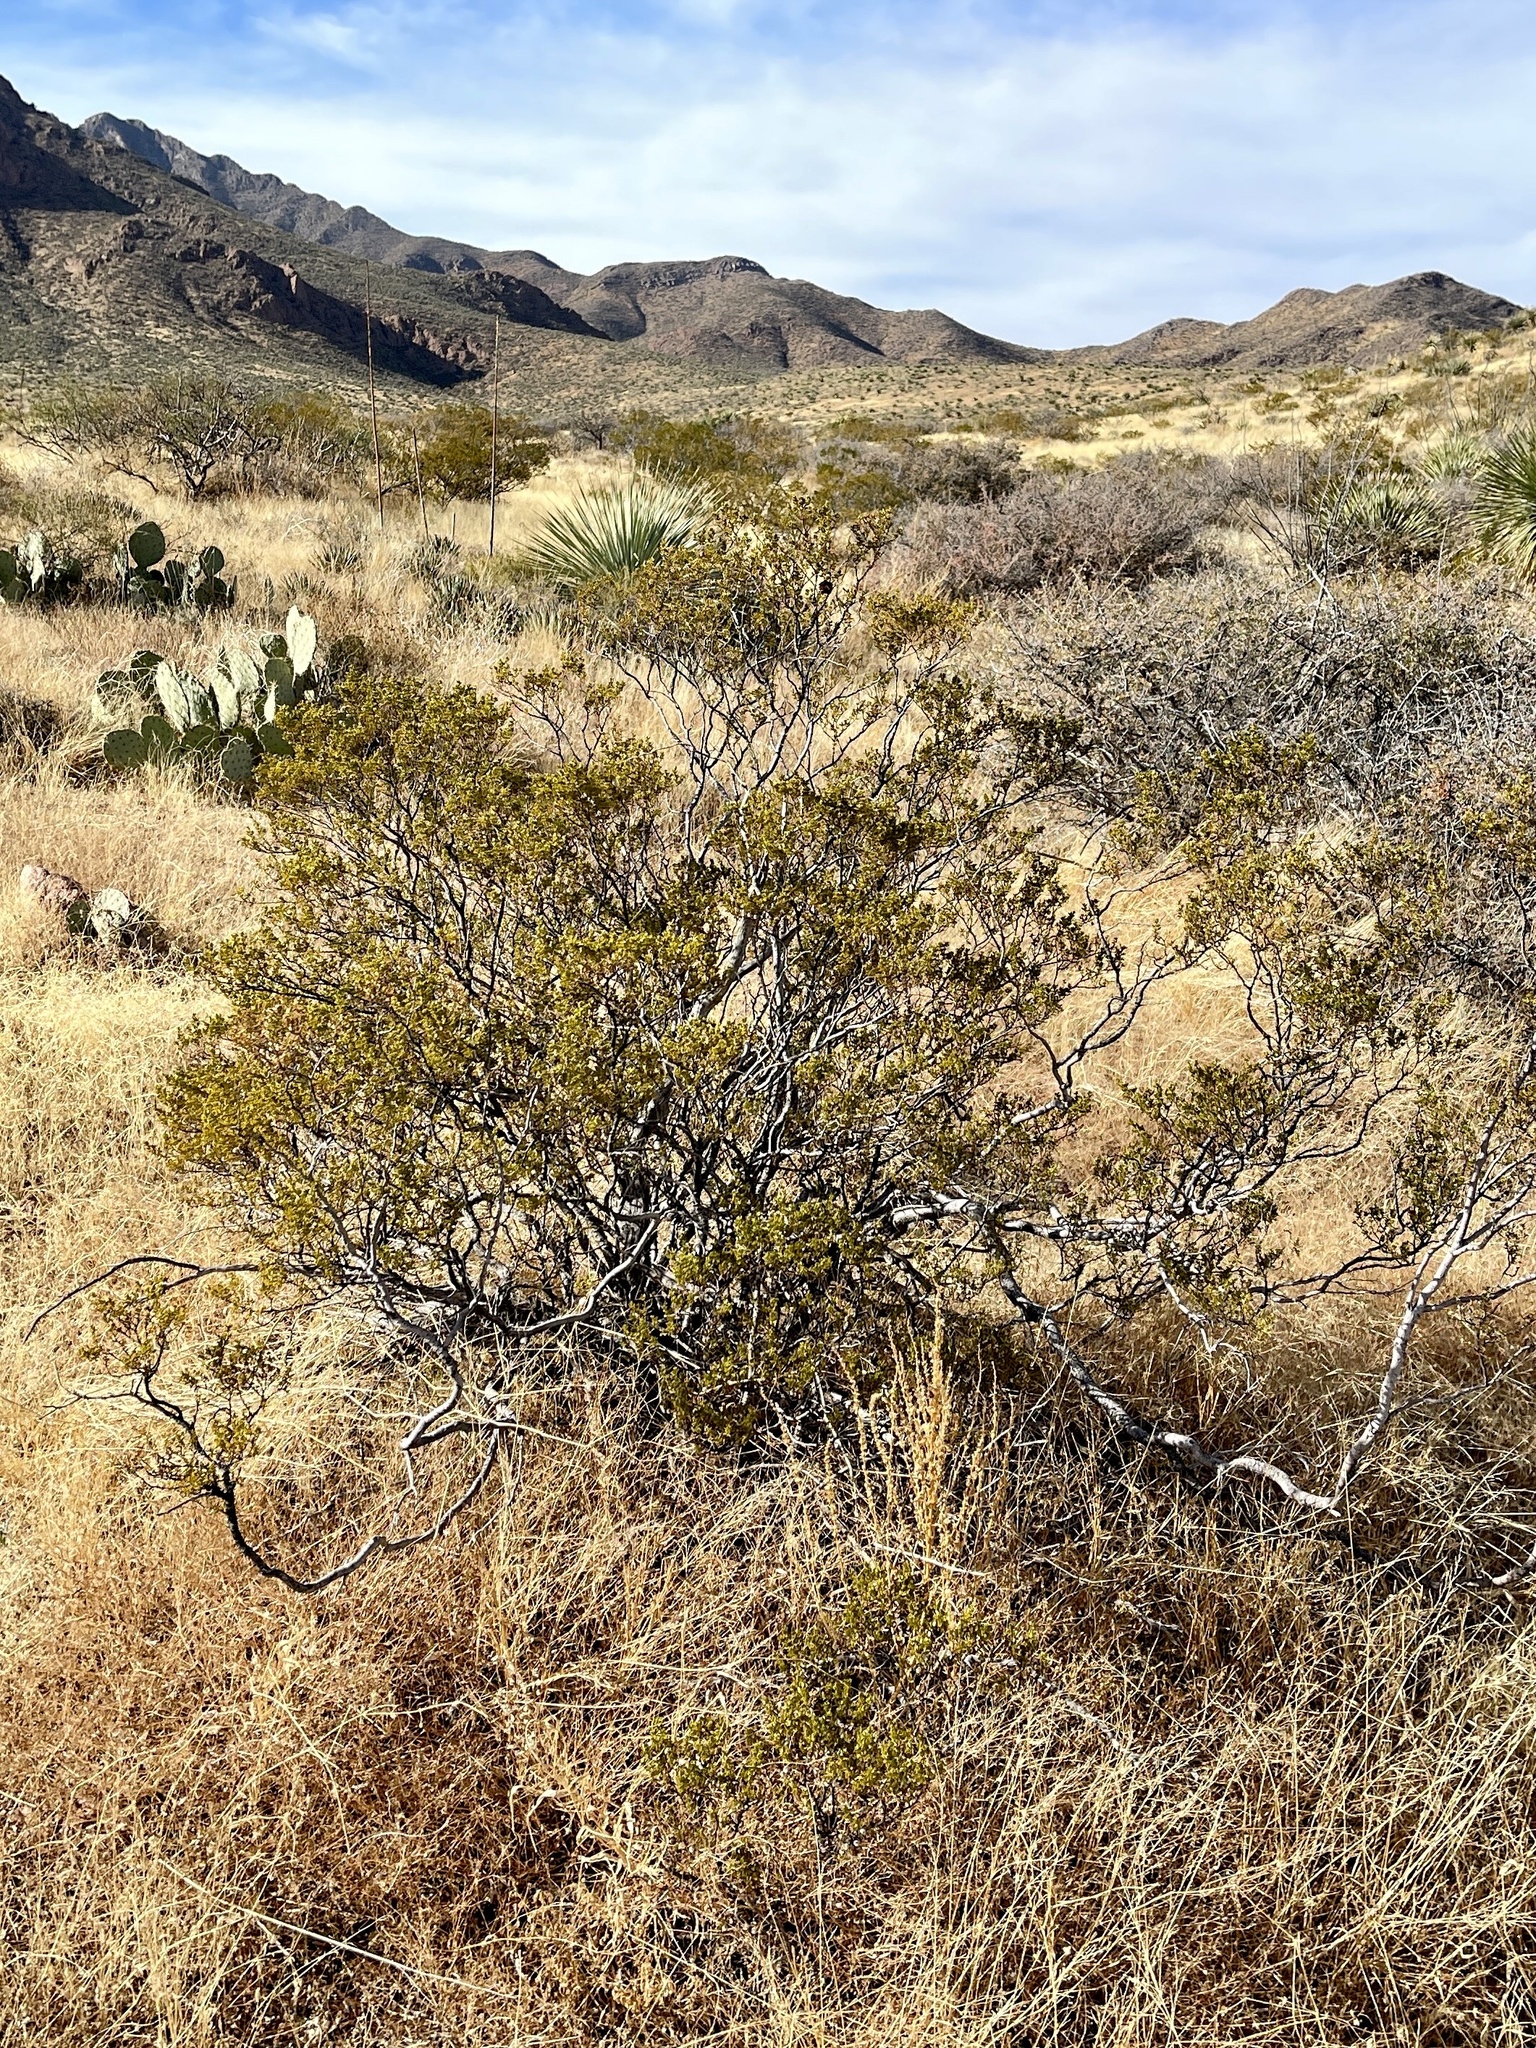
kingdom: Plantae
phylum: Tracheophyta
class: Magnoliopsida
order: Zygophyllales
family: Zygophyllaceae
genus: Larrea
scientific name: Larrea tridentata
